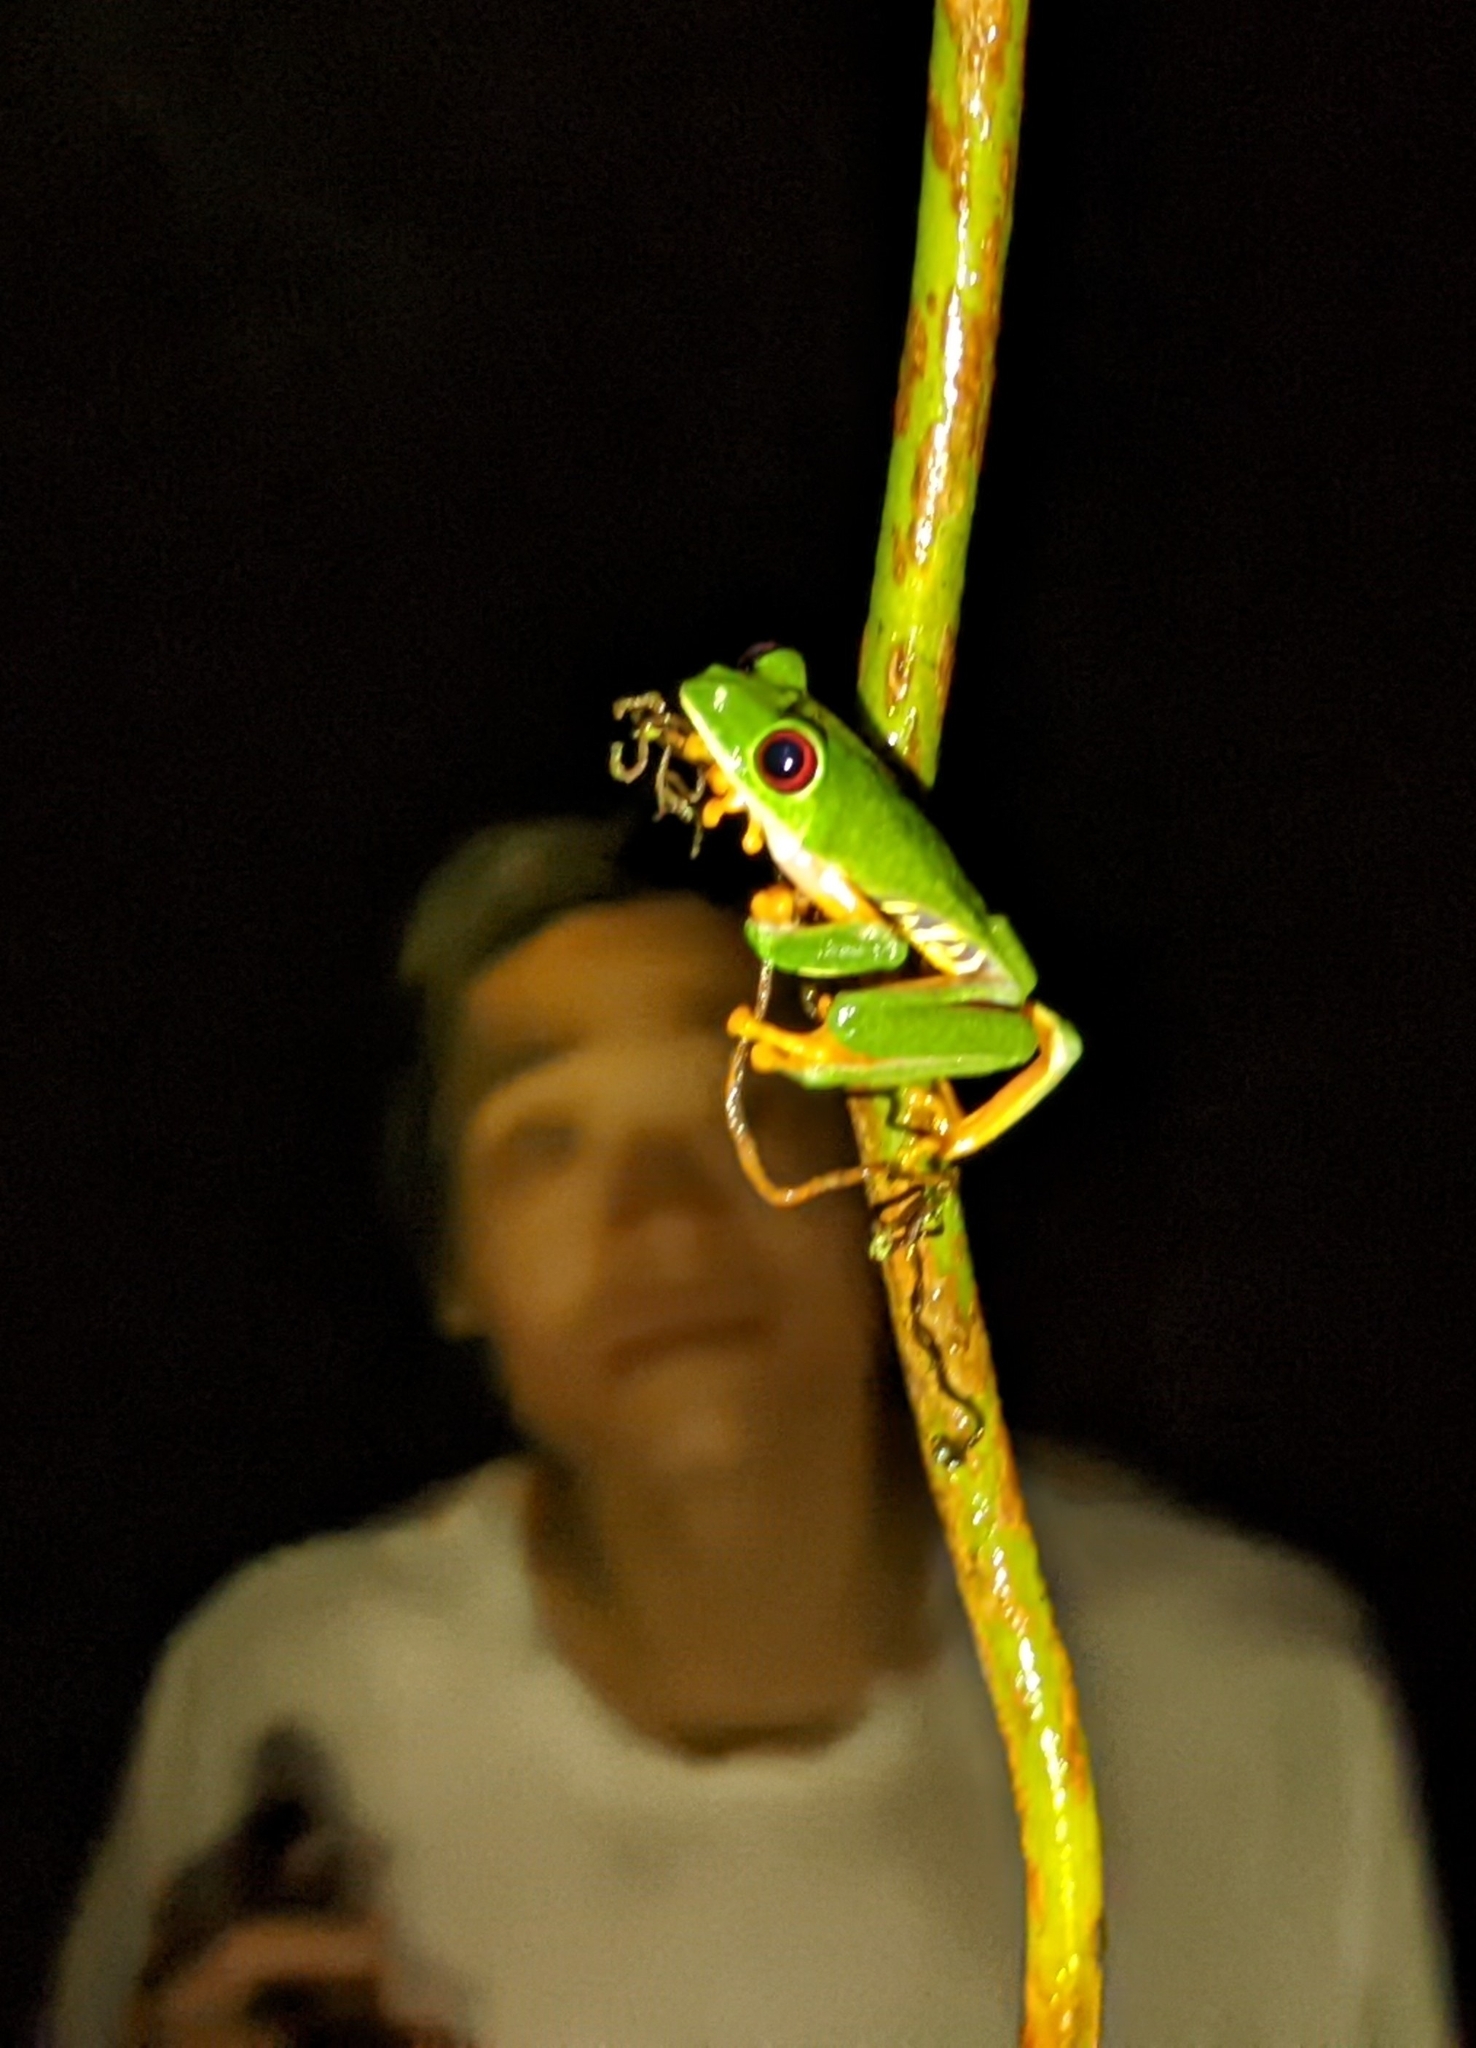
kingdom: Animalia
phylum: Chordata
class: Amphibia
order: Anura
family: Phyllomedusidae
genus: Agalychnis
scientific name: Agalychnis callidryas
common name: Red-eyed treefrog
